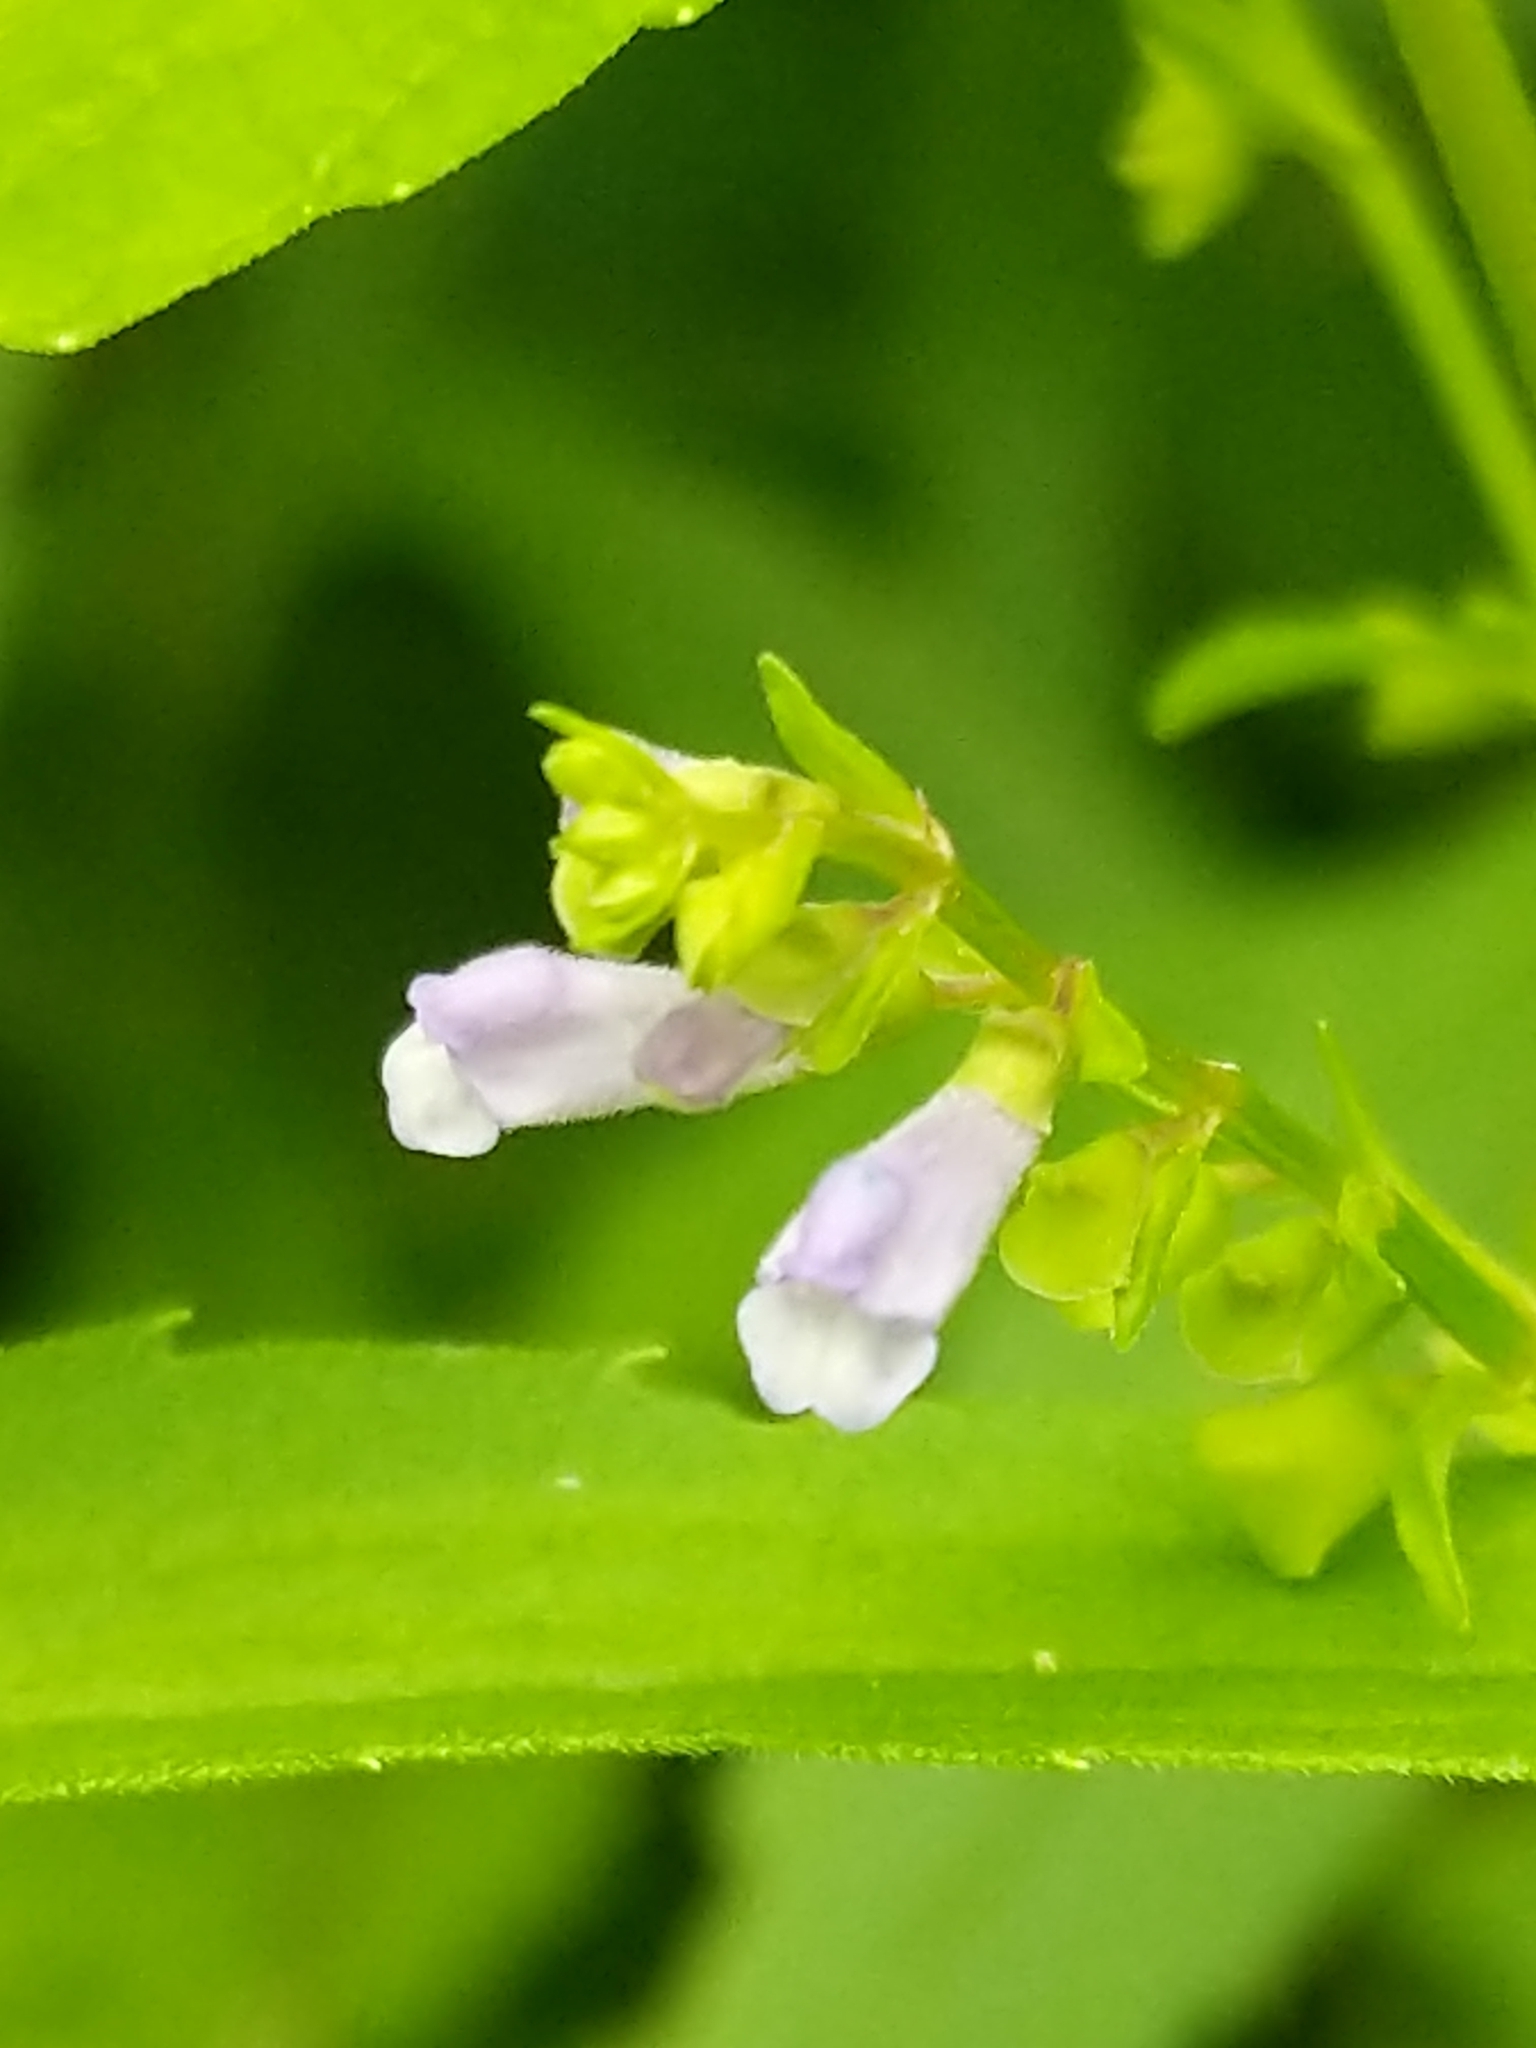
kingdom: Plantae
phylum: Tracheophyta
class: Magnoliopsida
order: Lamiales
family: Lamiaceae
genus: Scutellaria
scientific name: Scutellaria lateriflora
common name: Blue skullcap
